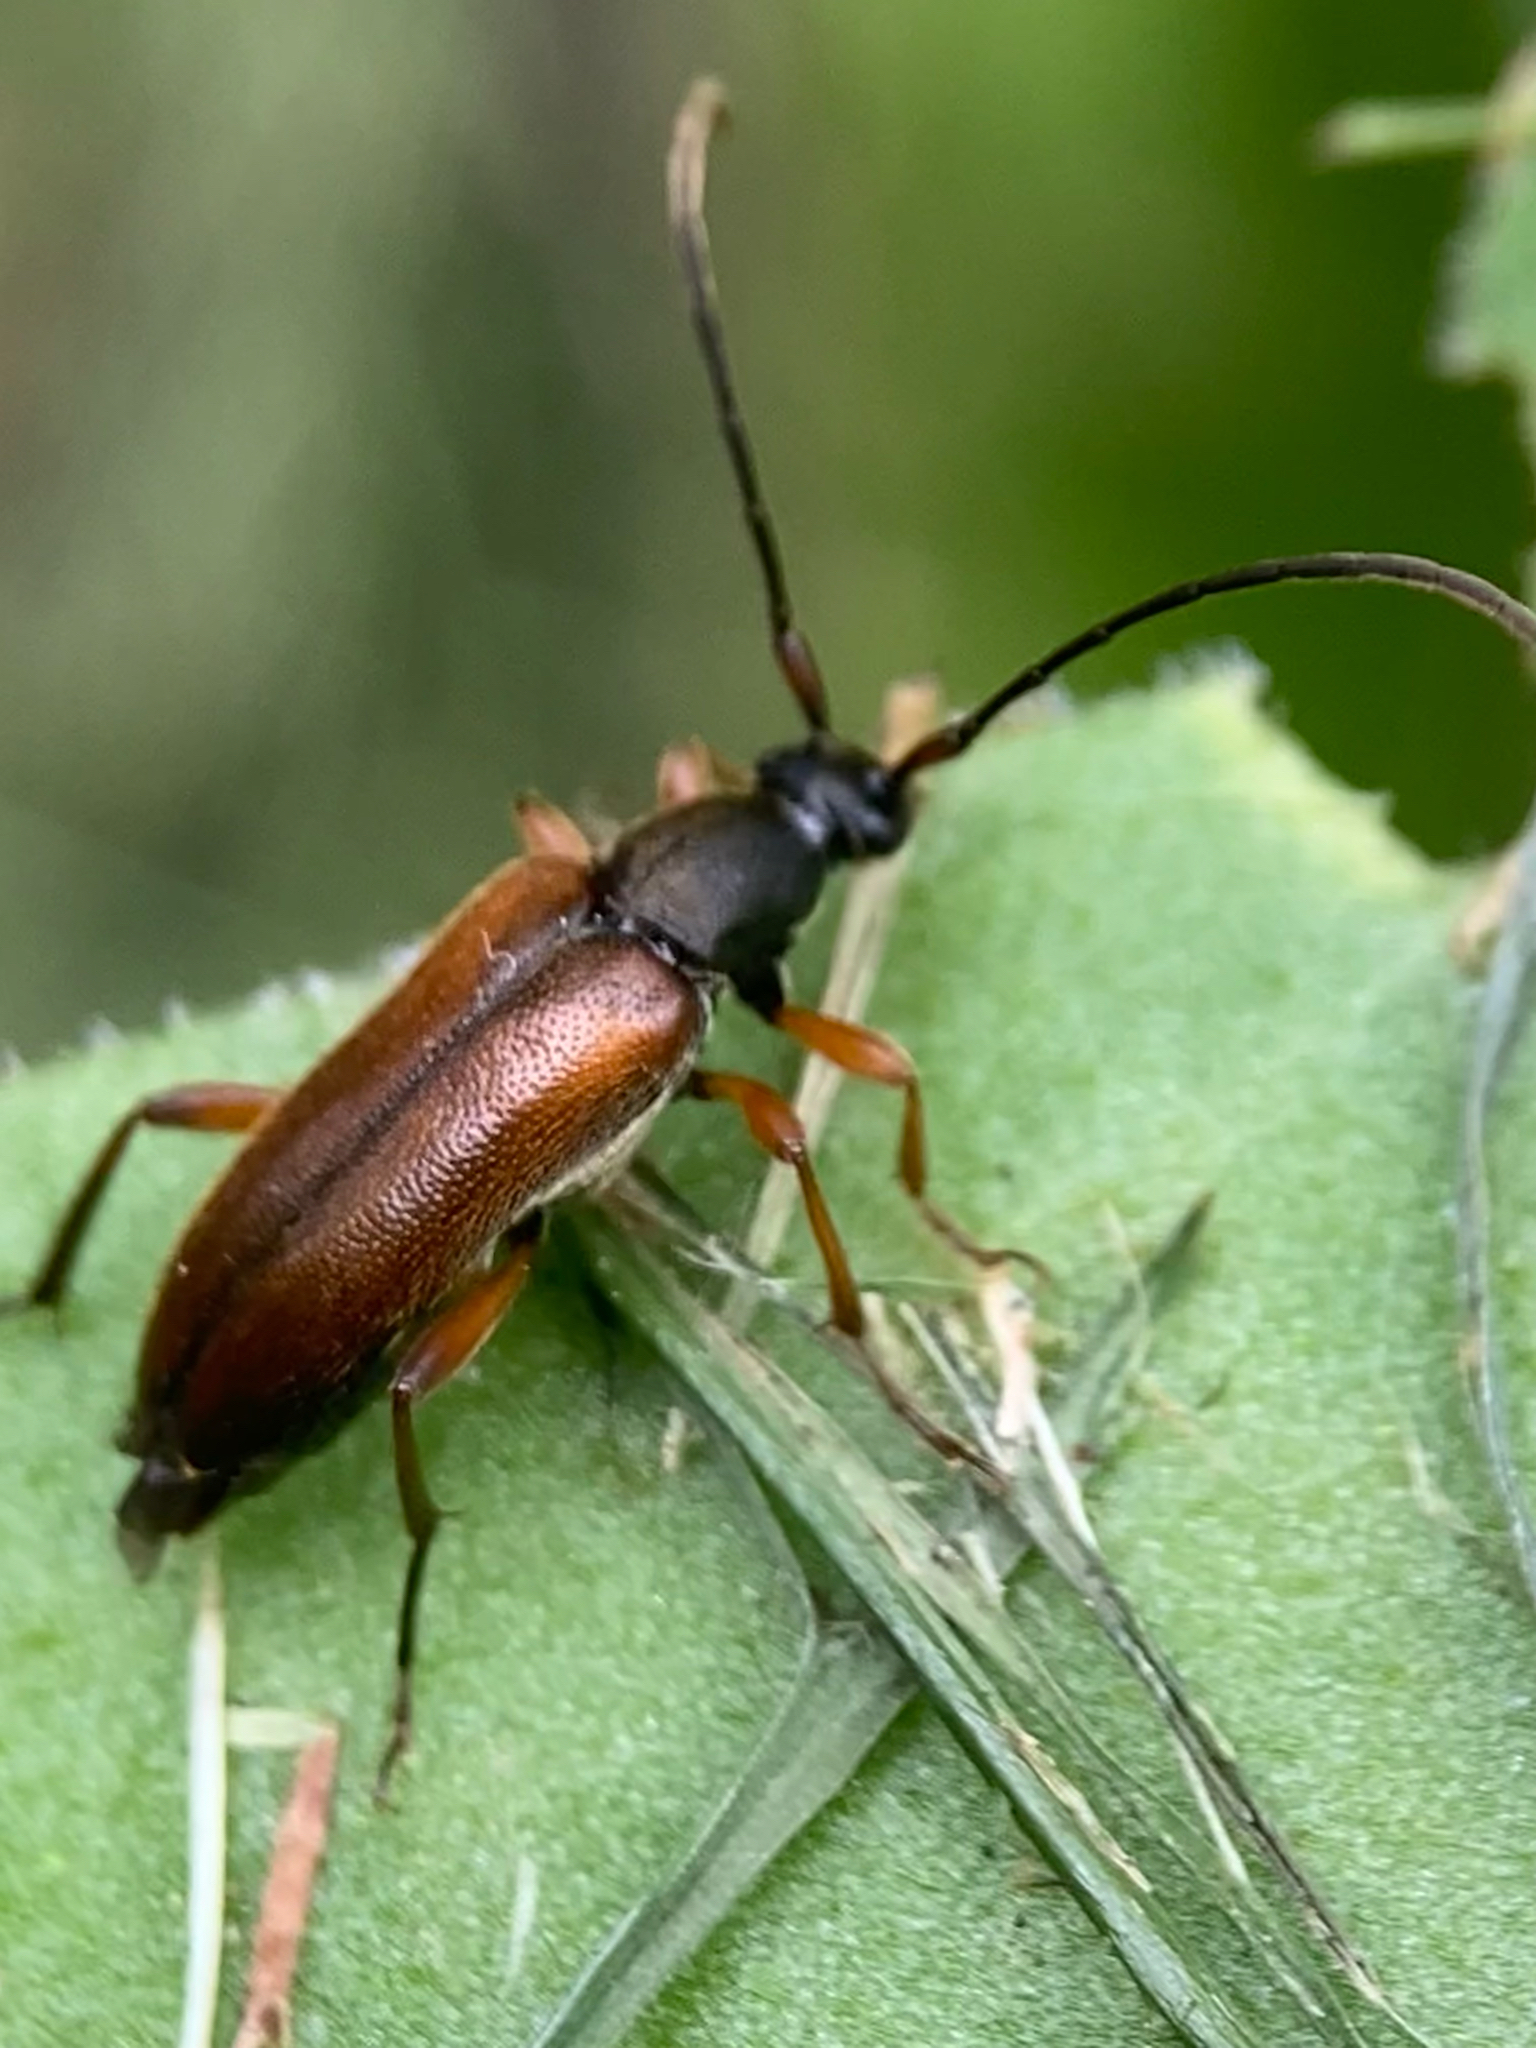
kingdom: Animalia
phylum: Arthropoda
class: Insecta
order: Coleoptera
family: Cerambycidae
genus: Alosterna
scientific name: Alosterna tabacicolor
